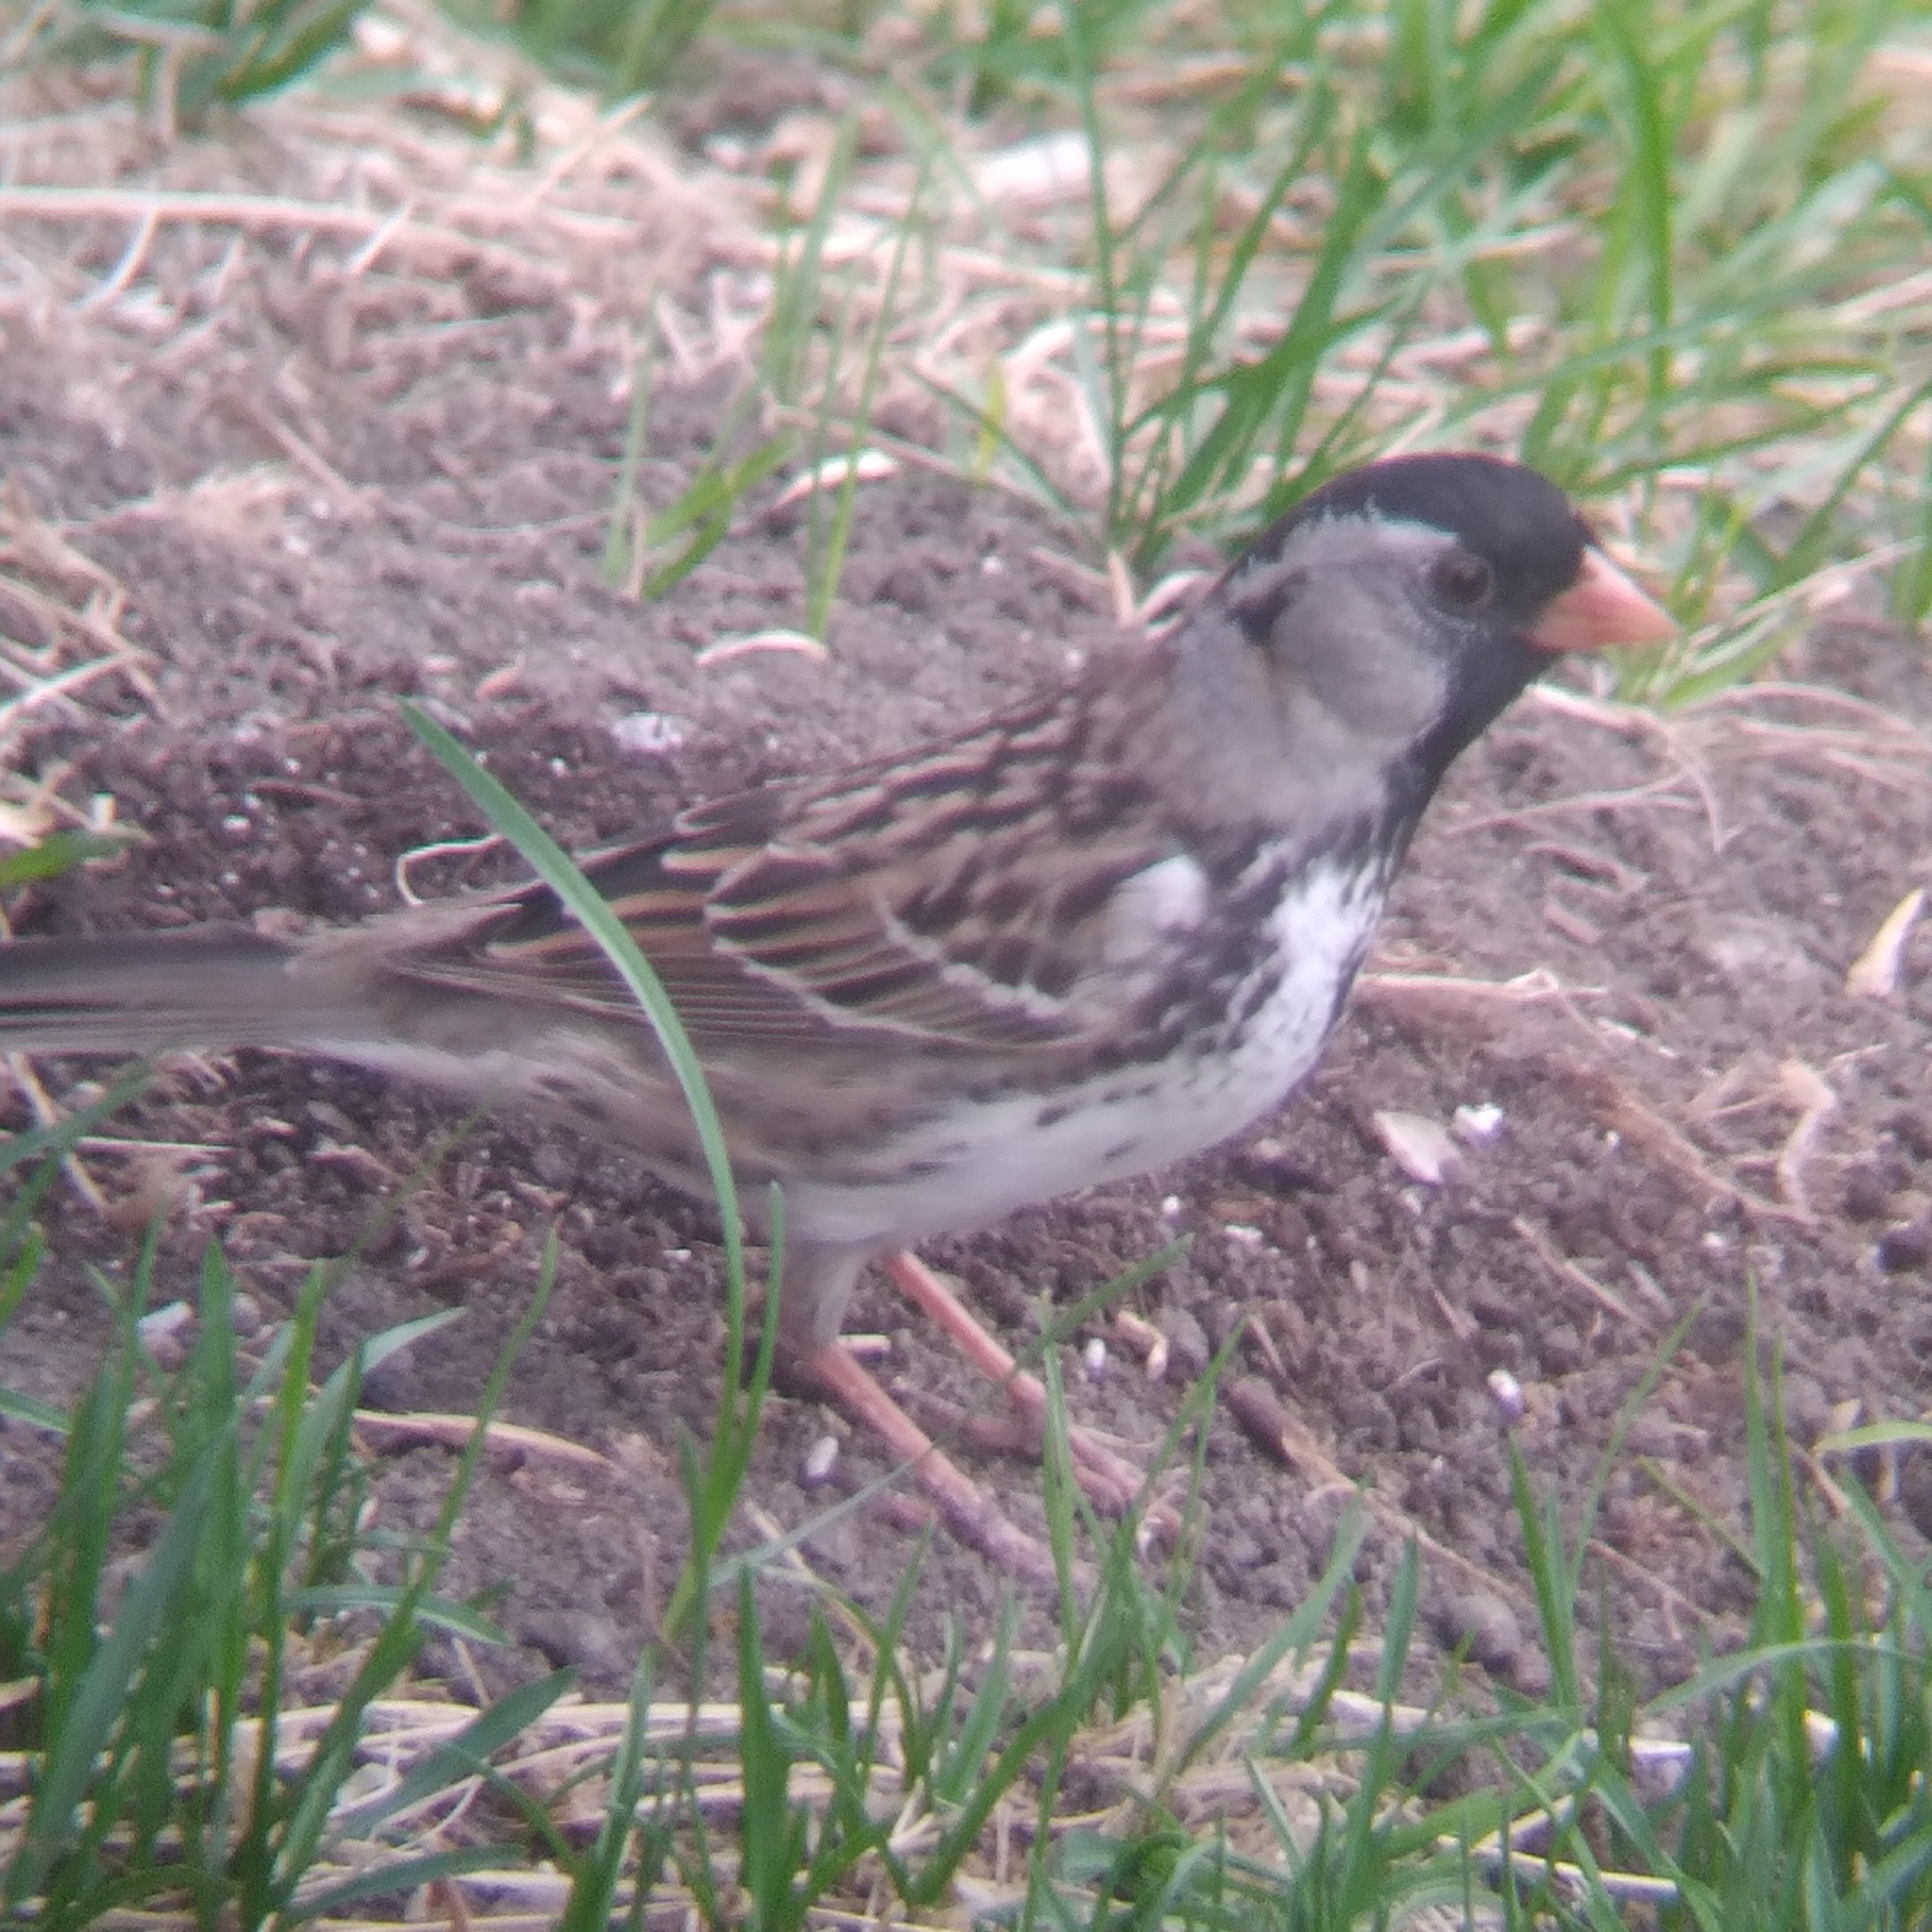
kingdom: Animalia
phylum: Chordata
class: Aves
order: Passeriformes
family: Passerellidae
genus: Zonotrichia
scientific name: Zonotrichia querula
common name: Harris's sparrow
